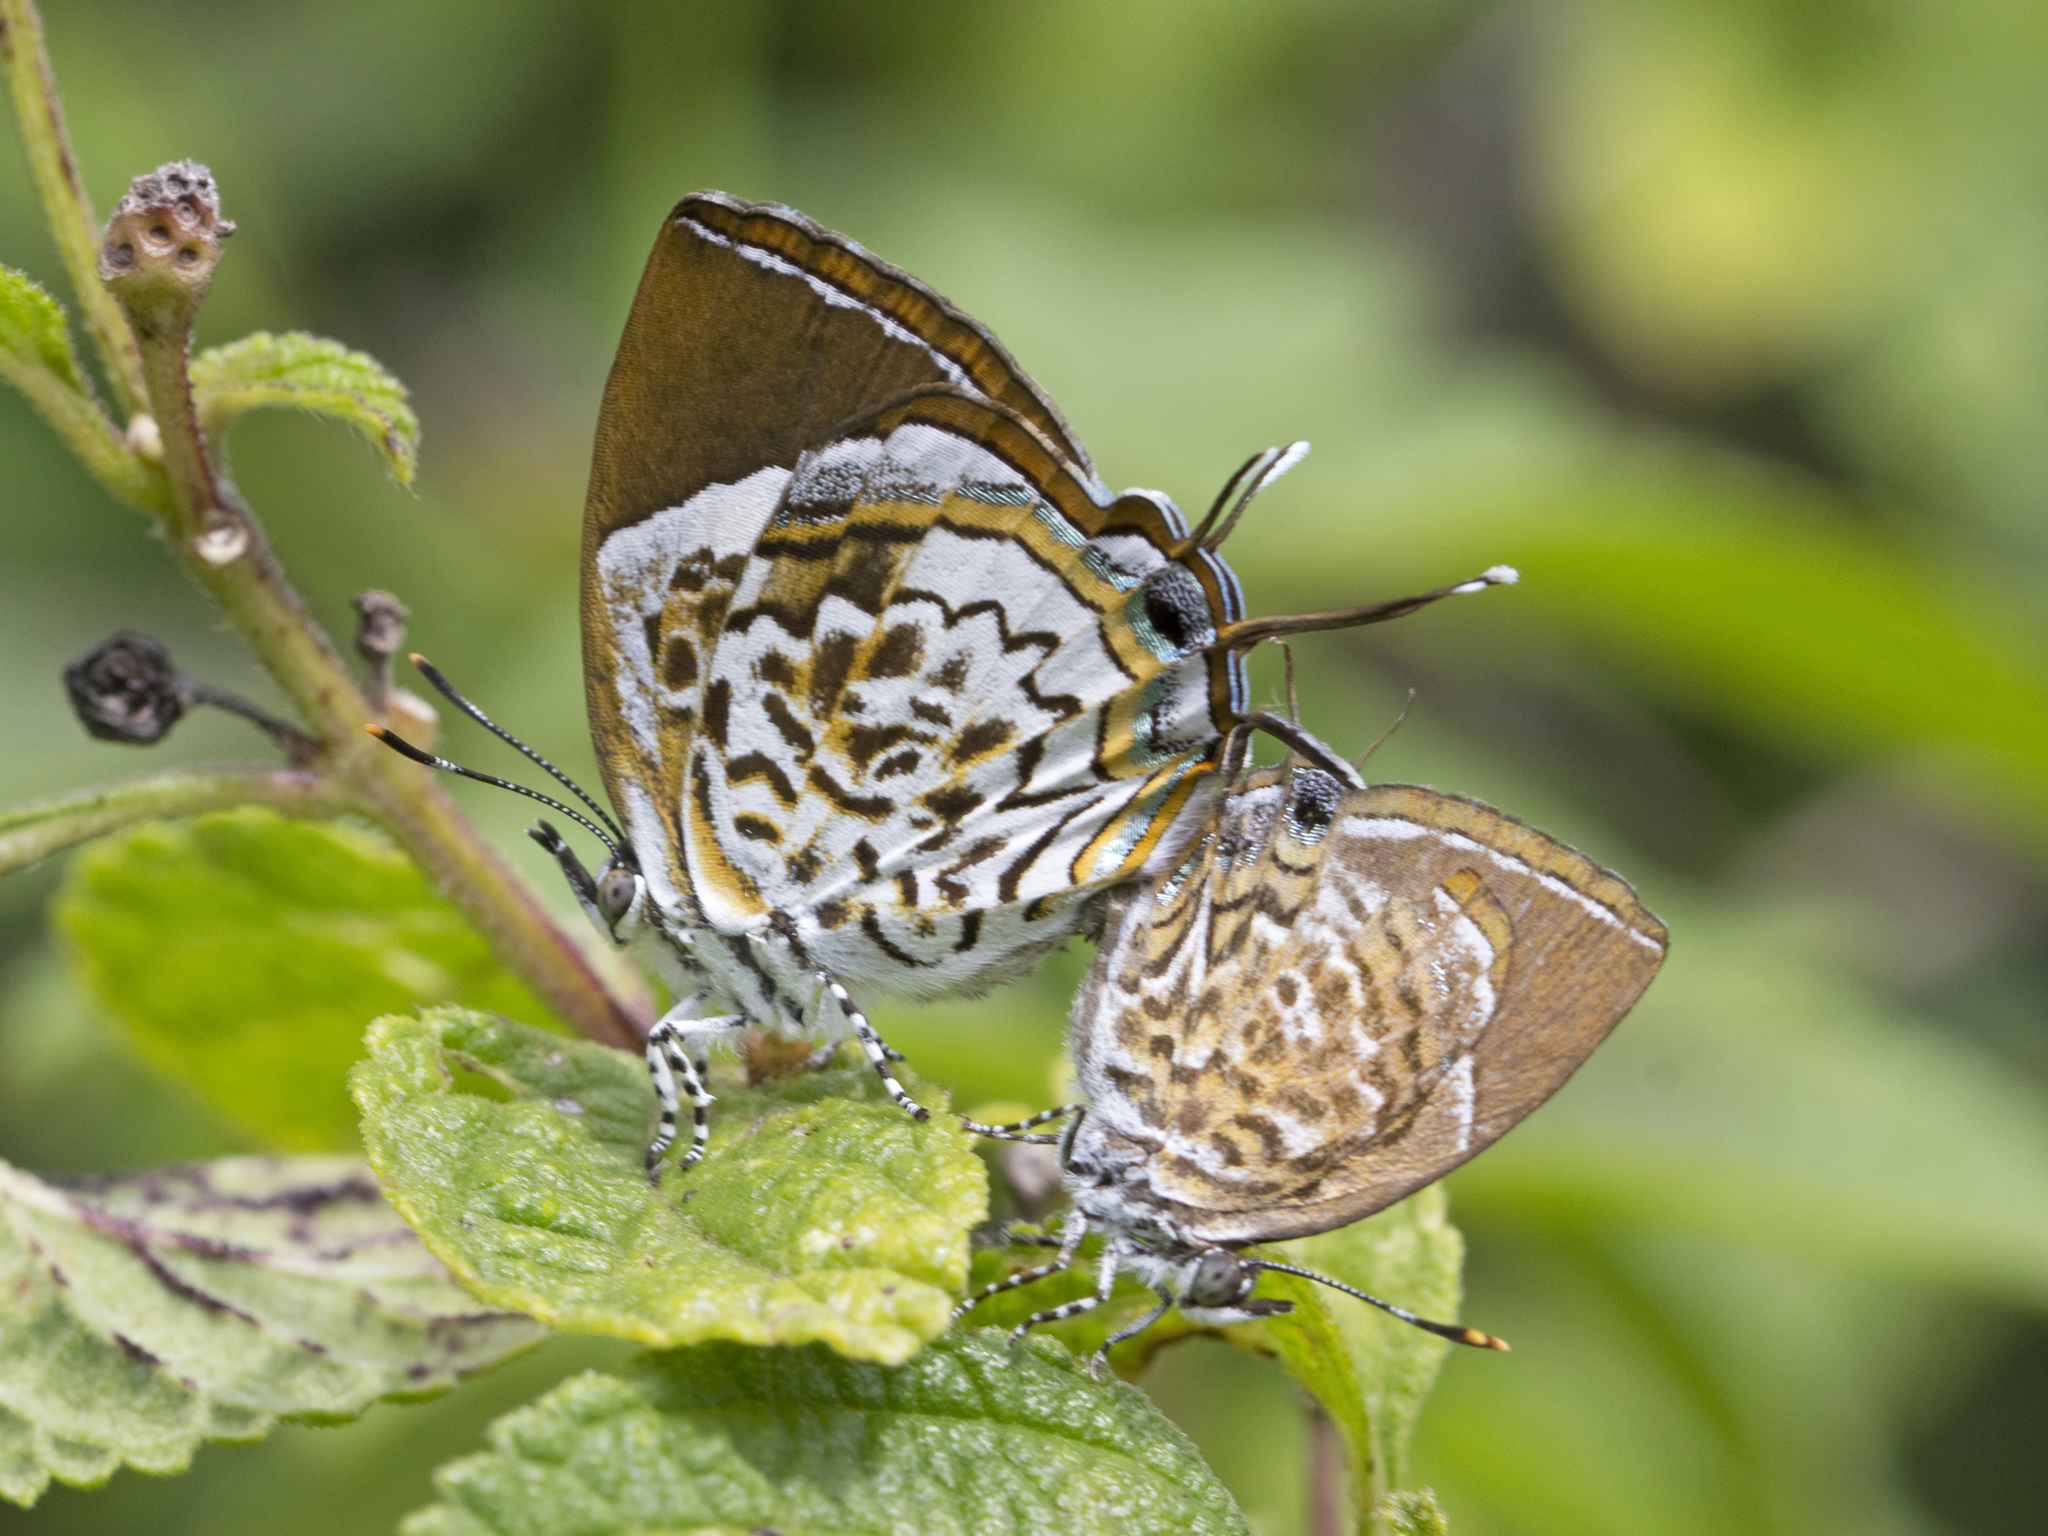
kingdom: Animalia
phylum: Arthropoda
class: Insecta
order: Lepidoptera
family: Lycaenidae
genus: Rathinda
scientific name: Rathinda amor
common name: Monkey puzzle
